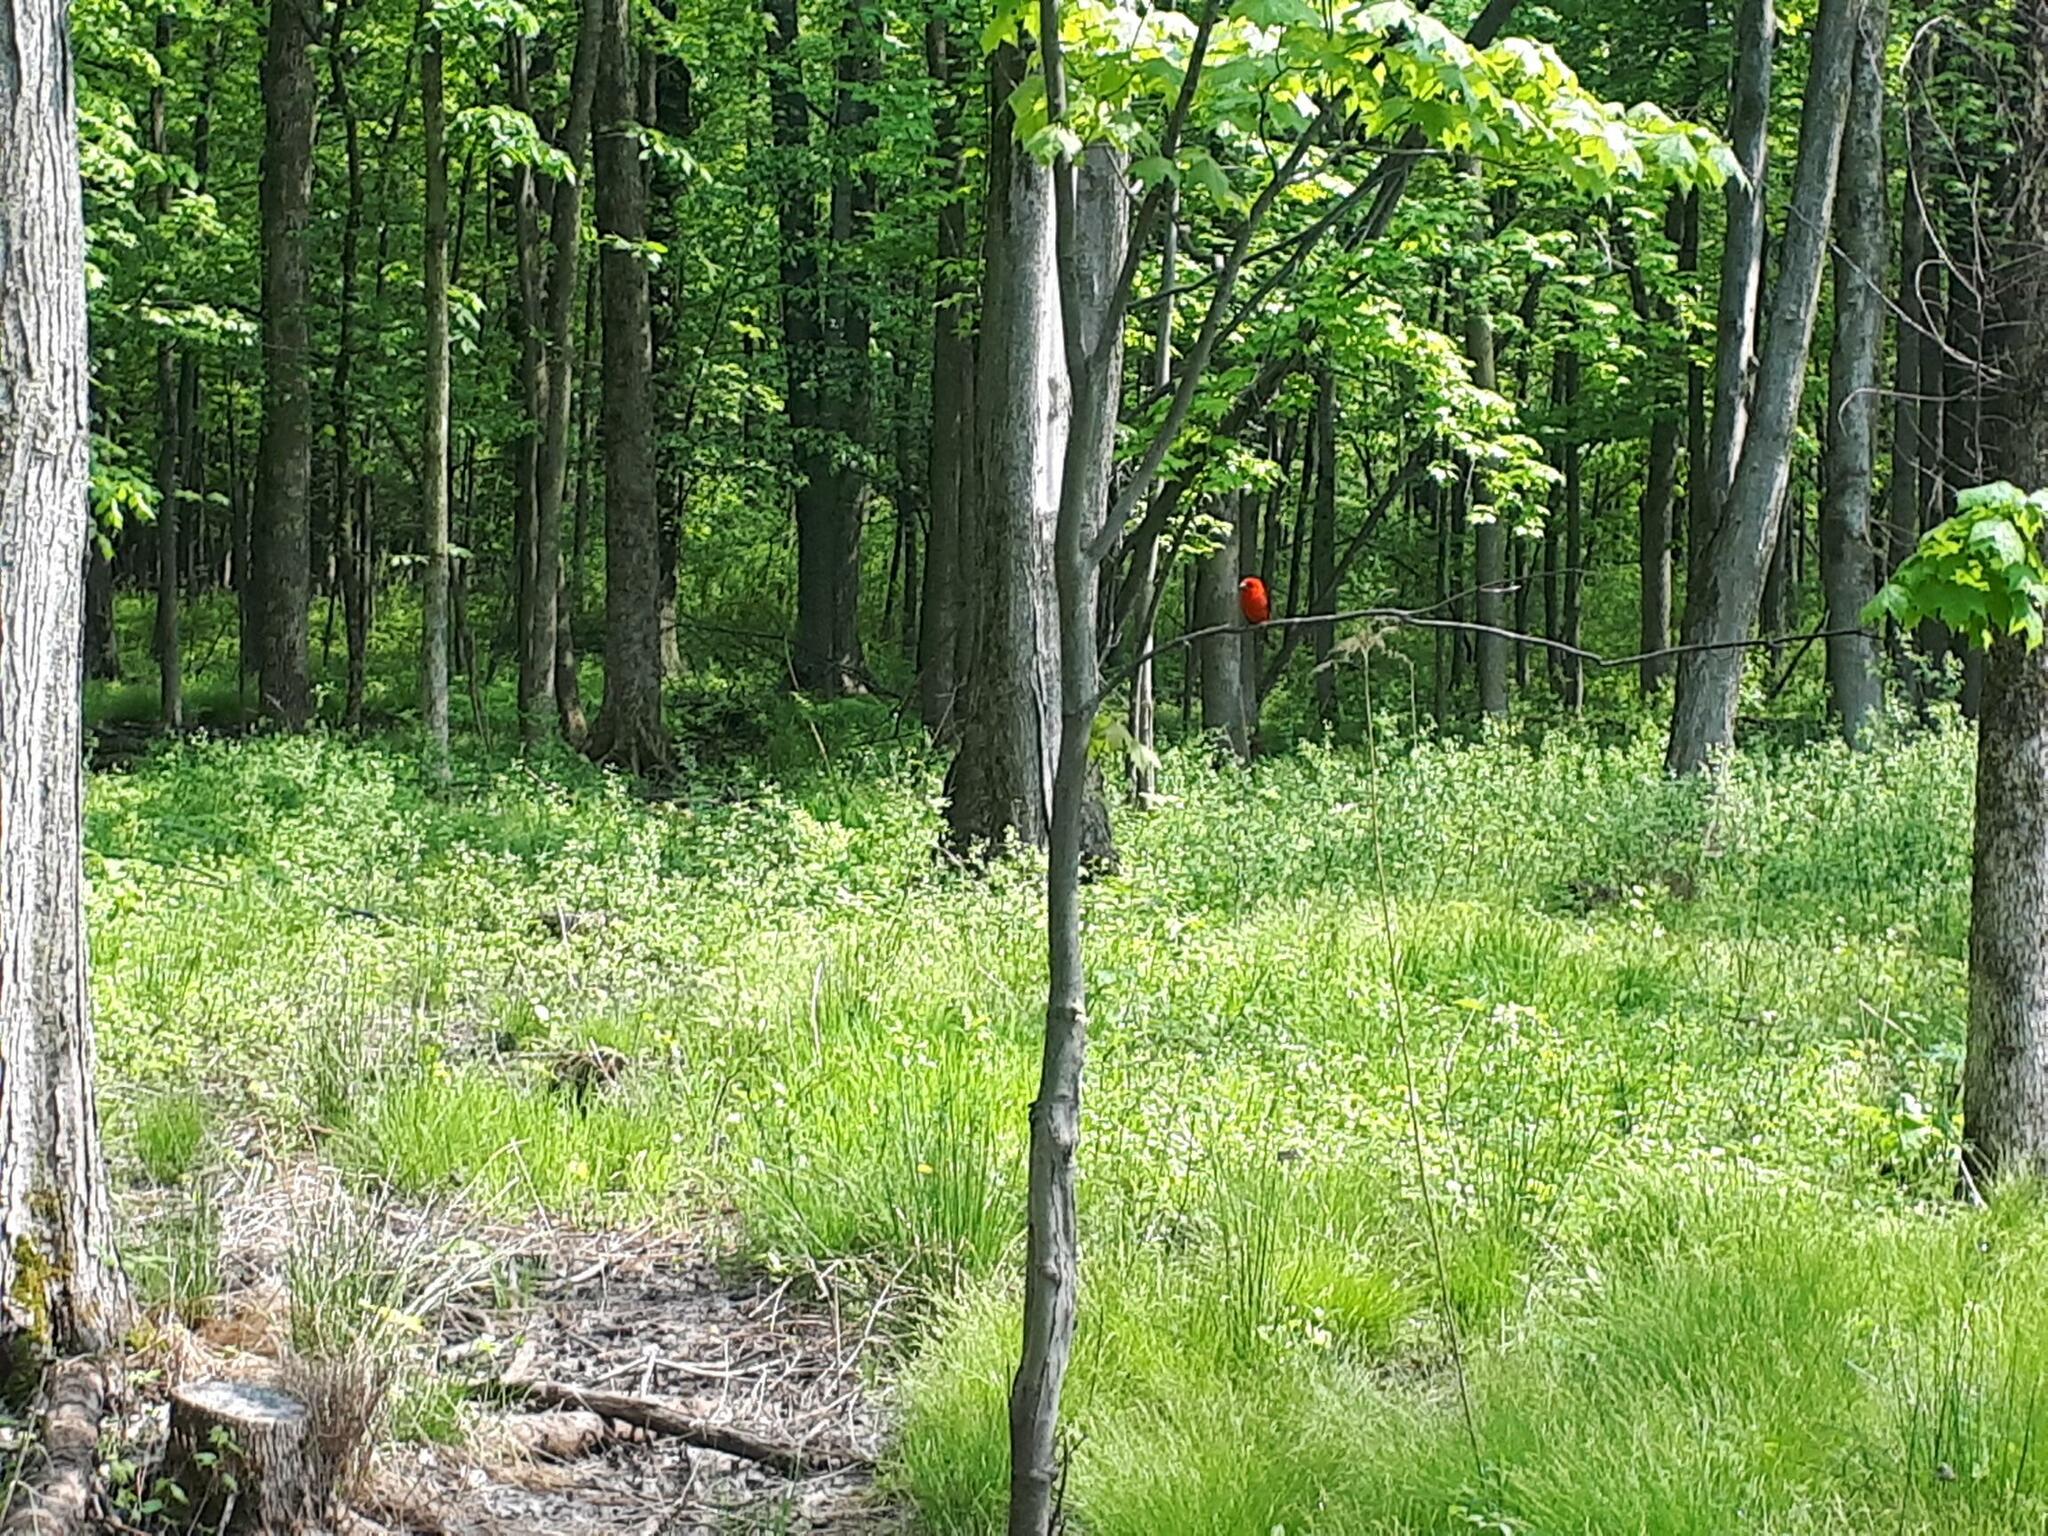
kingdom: Animalia
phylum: Chordata
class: Aves
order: Passeriformes
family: Cardinalidae
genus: Piranga
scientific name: Piranga olivacea
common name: Scarlet tanager
